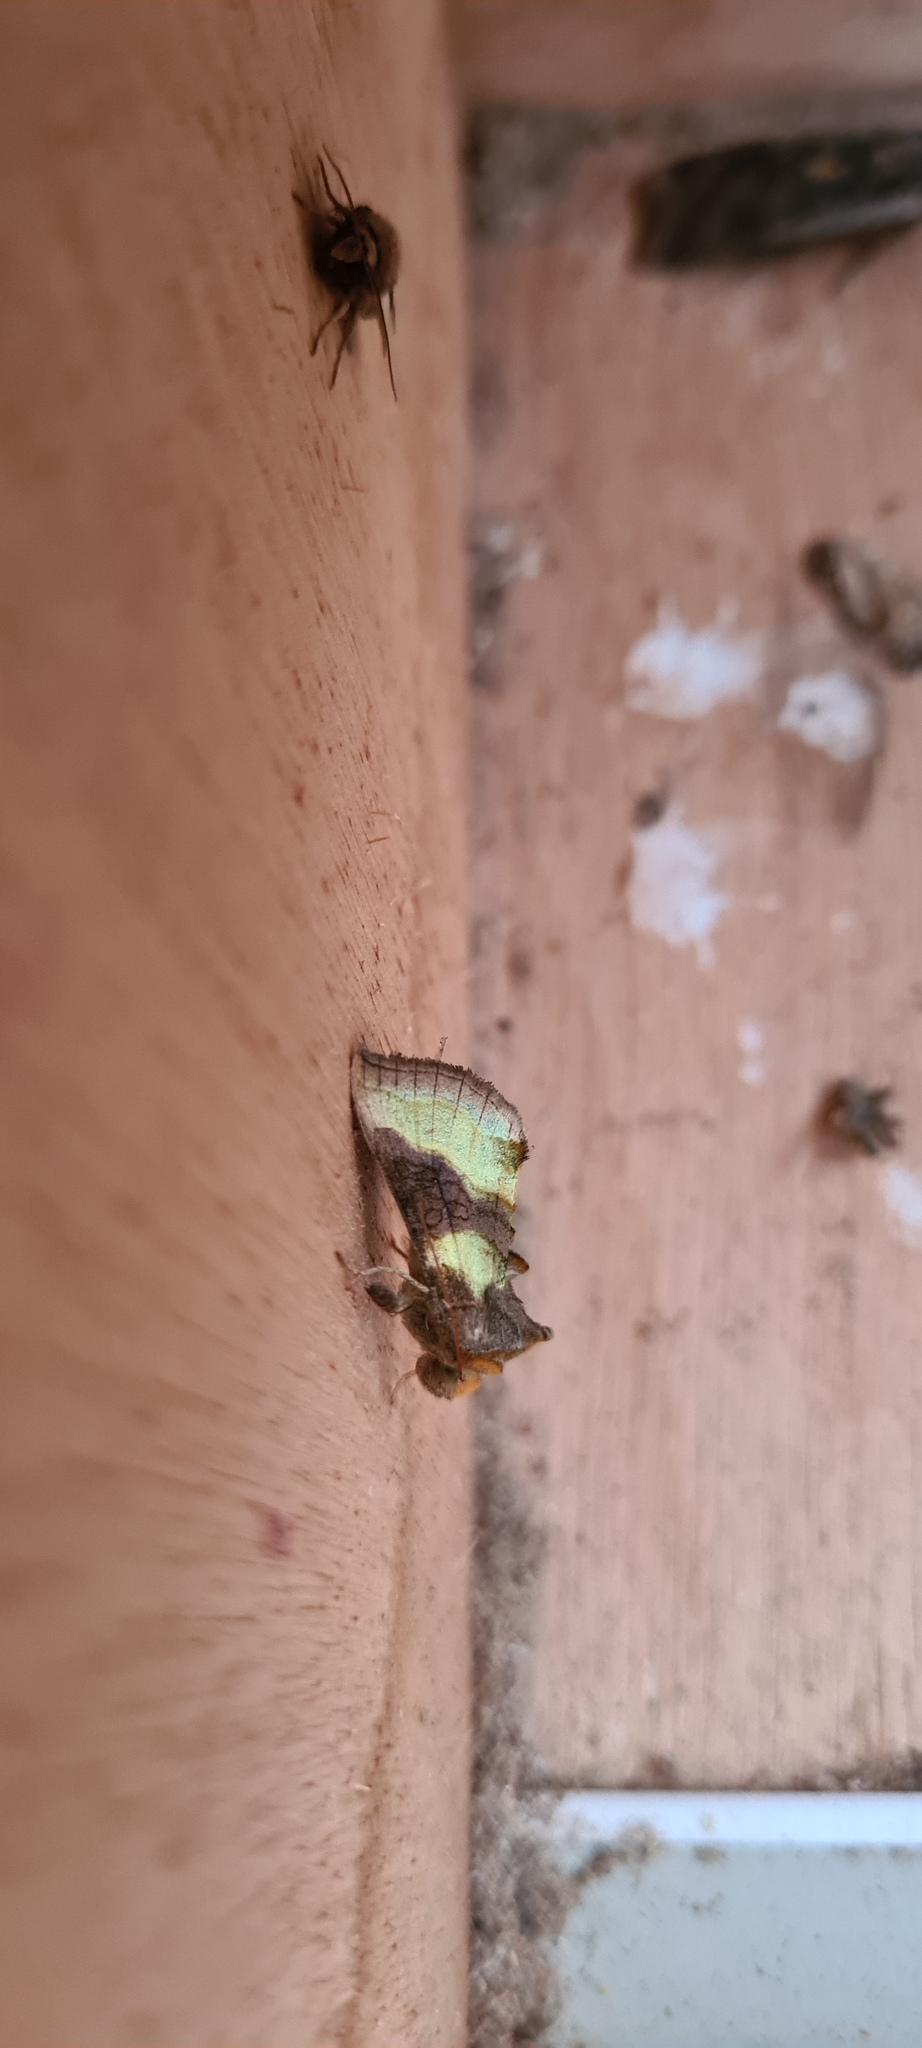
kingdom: Animalia
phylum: Arthropoda
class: Insecta
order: Lepidoptera
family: Noctuidae
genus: Diachrysia
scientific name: Diachrysia chrysitis
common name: Burnished brass
